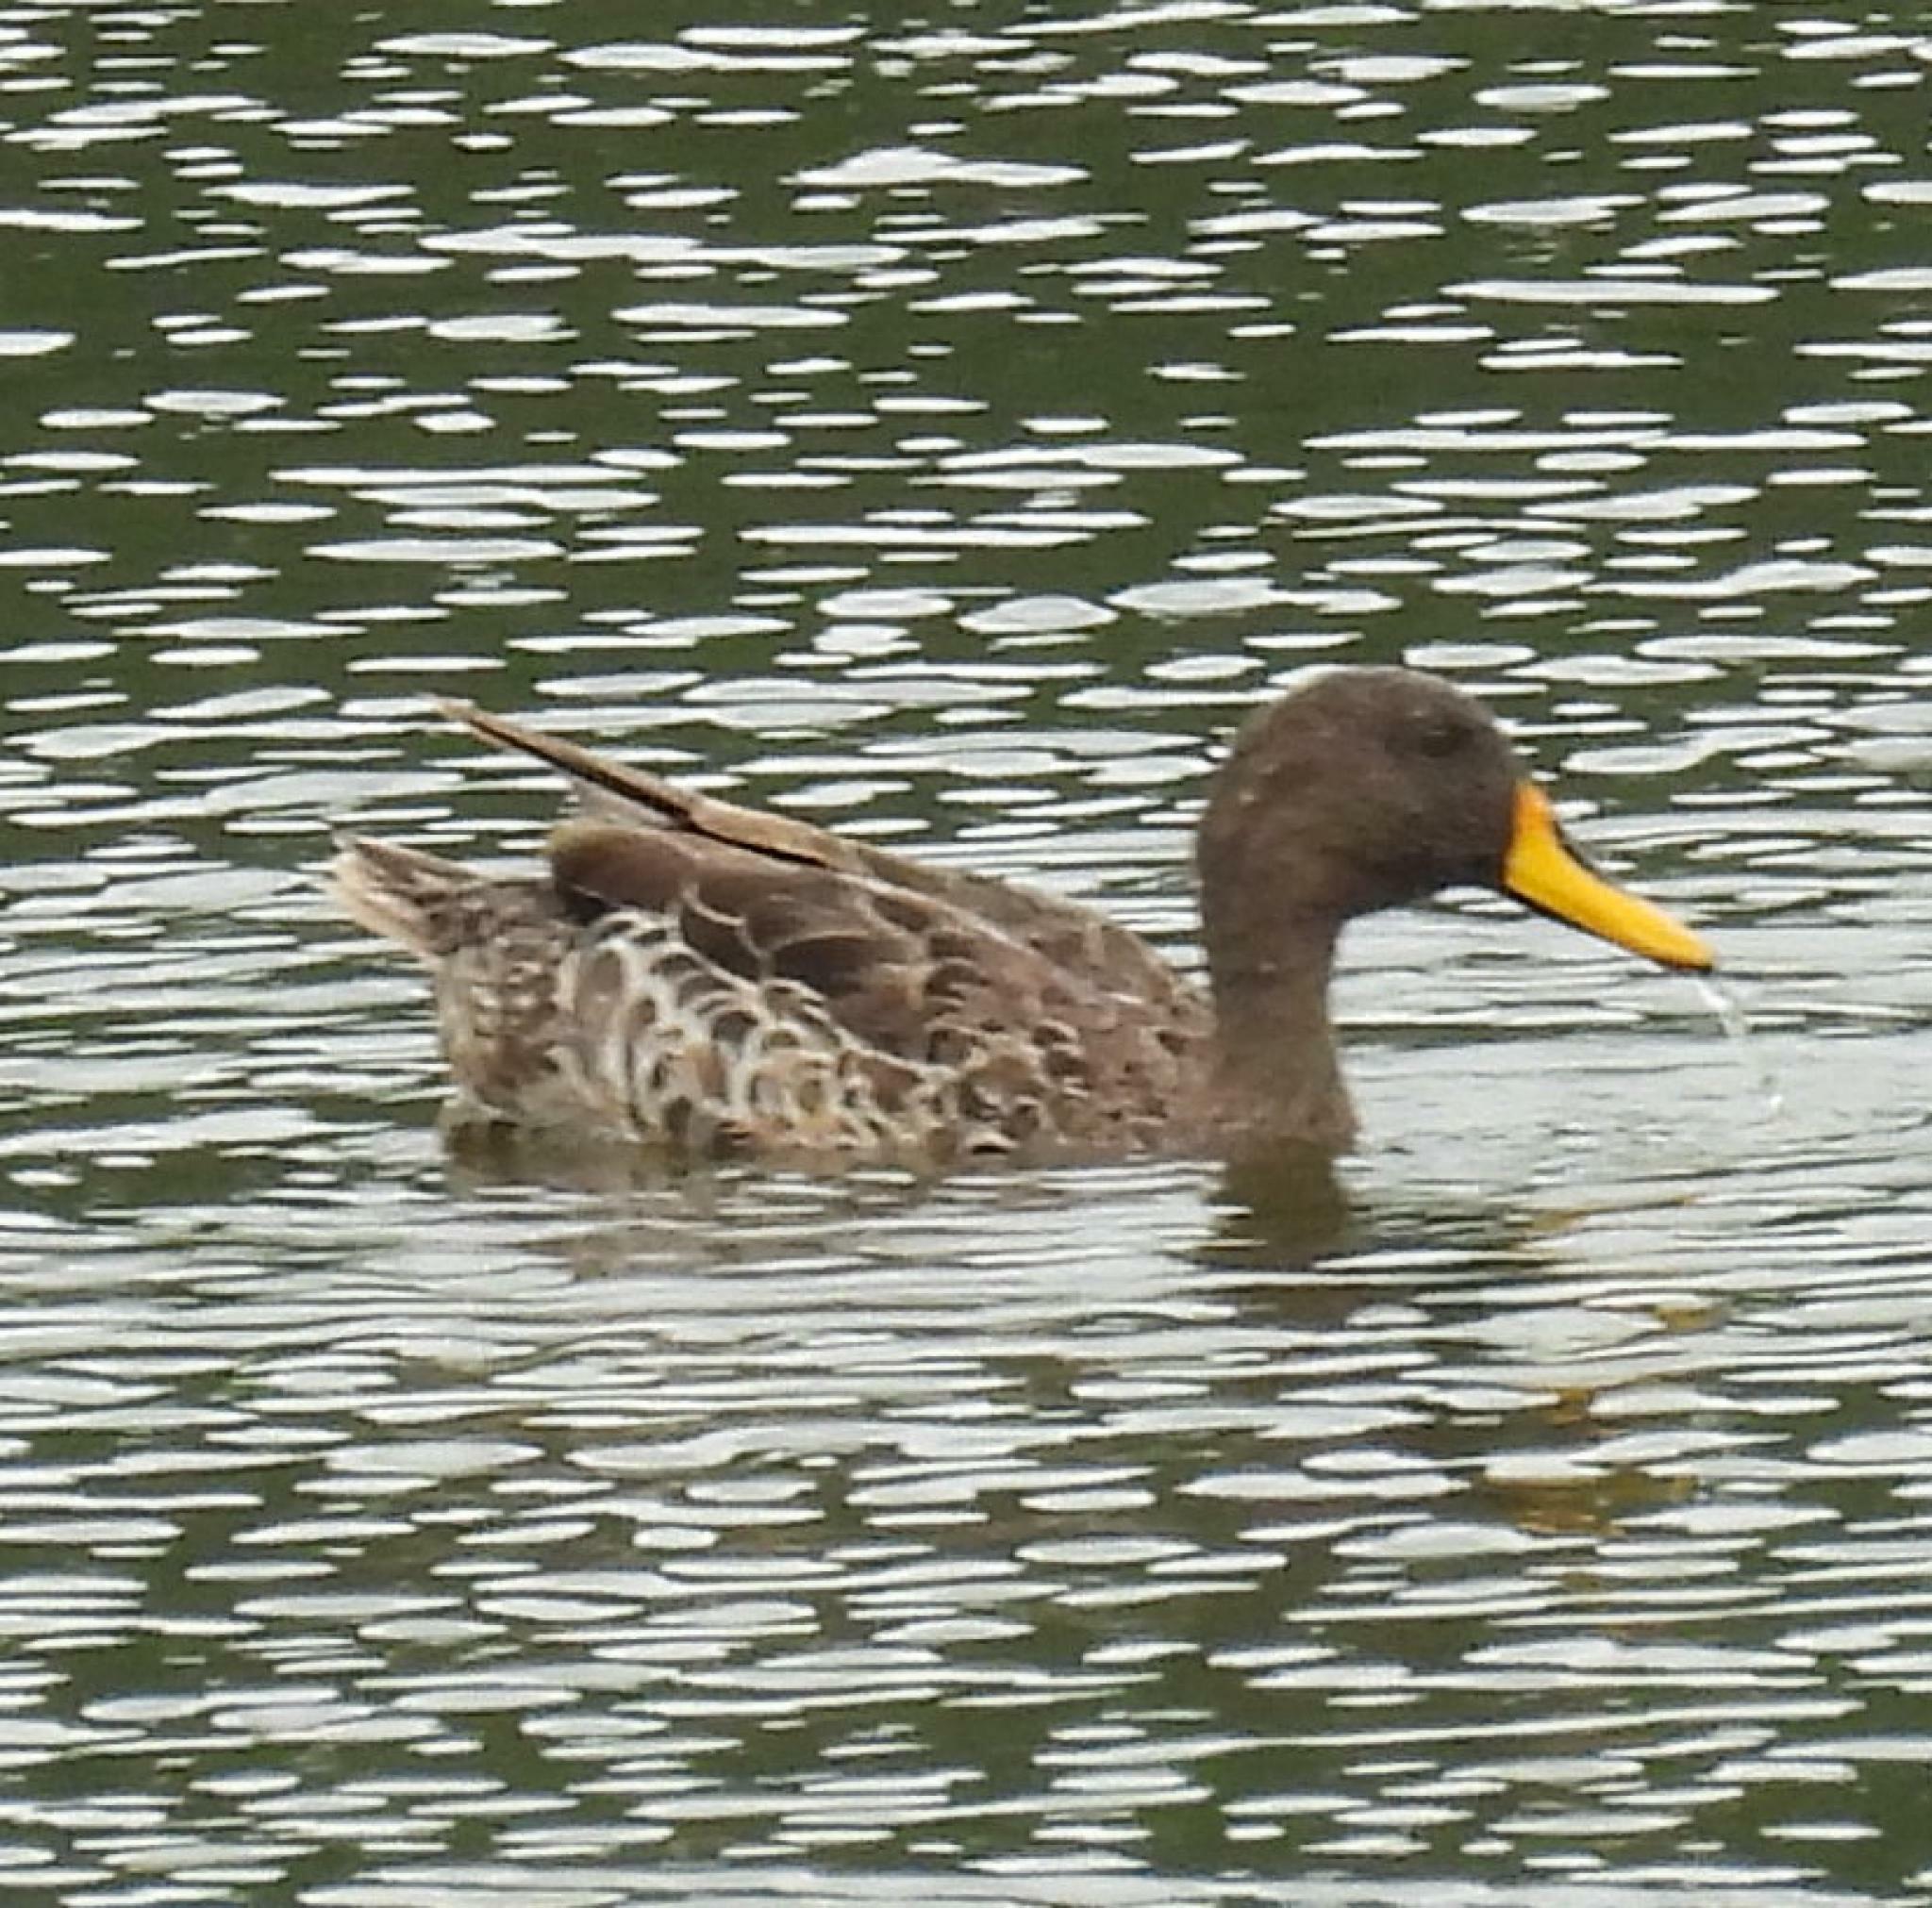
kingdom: Animalia
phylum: Chordata
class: Aves
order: Anseriformes
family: Anatidae
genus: Anas
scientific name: Anas undulata
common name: Yellow-billed duck
